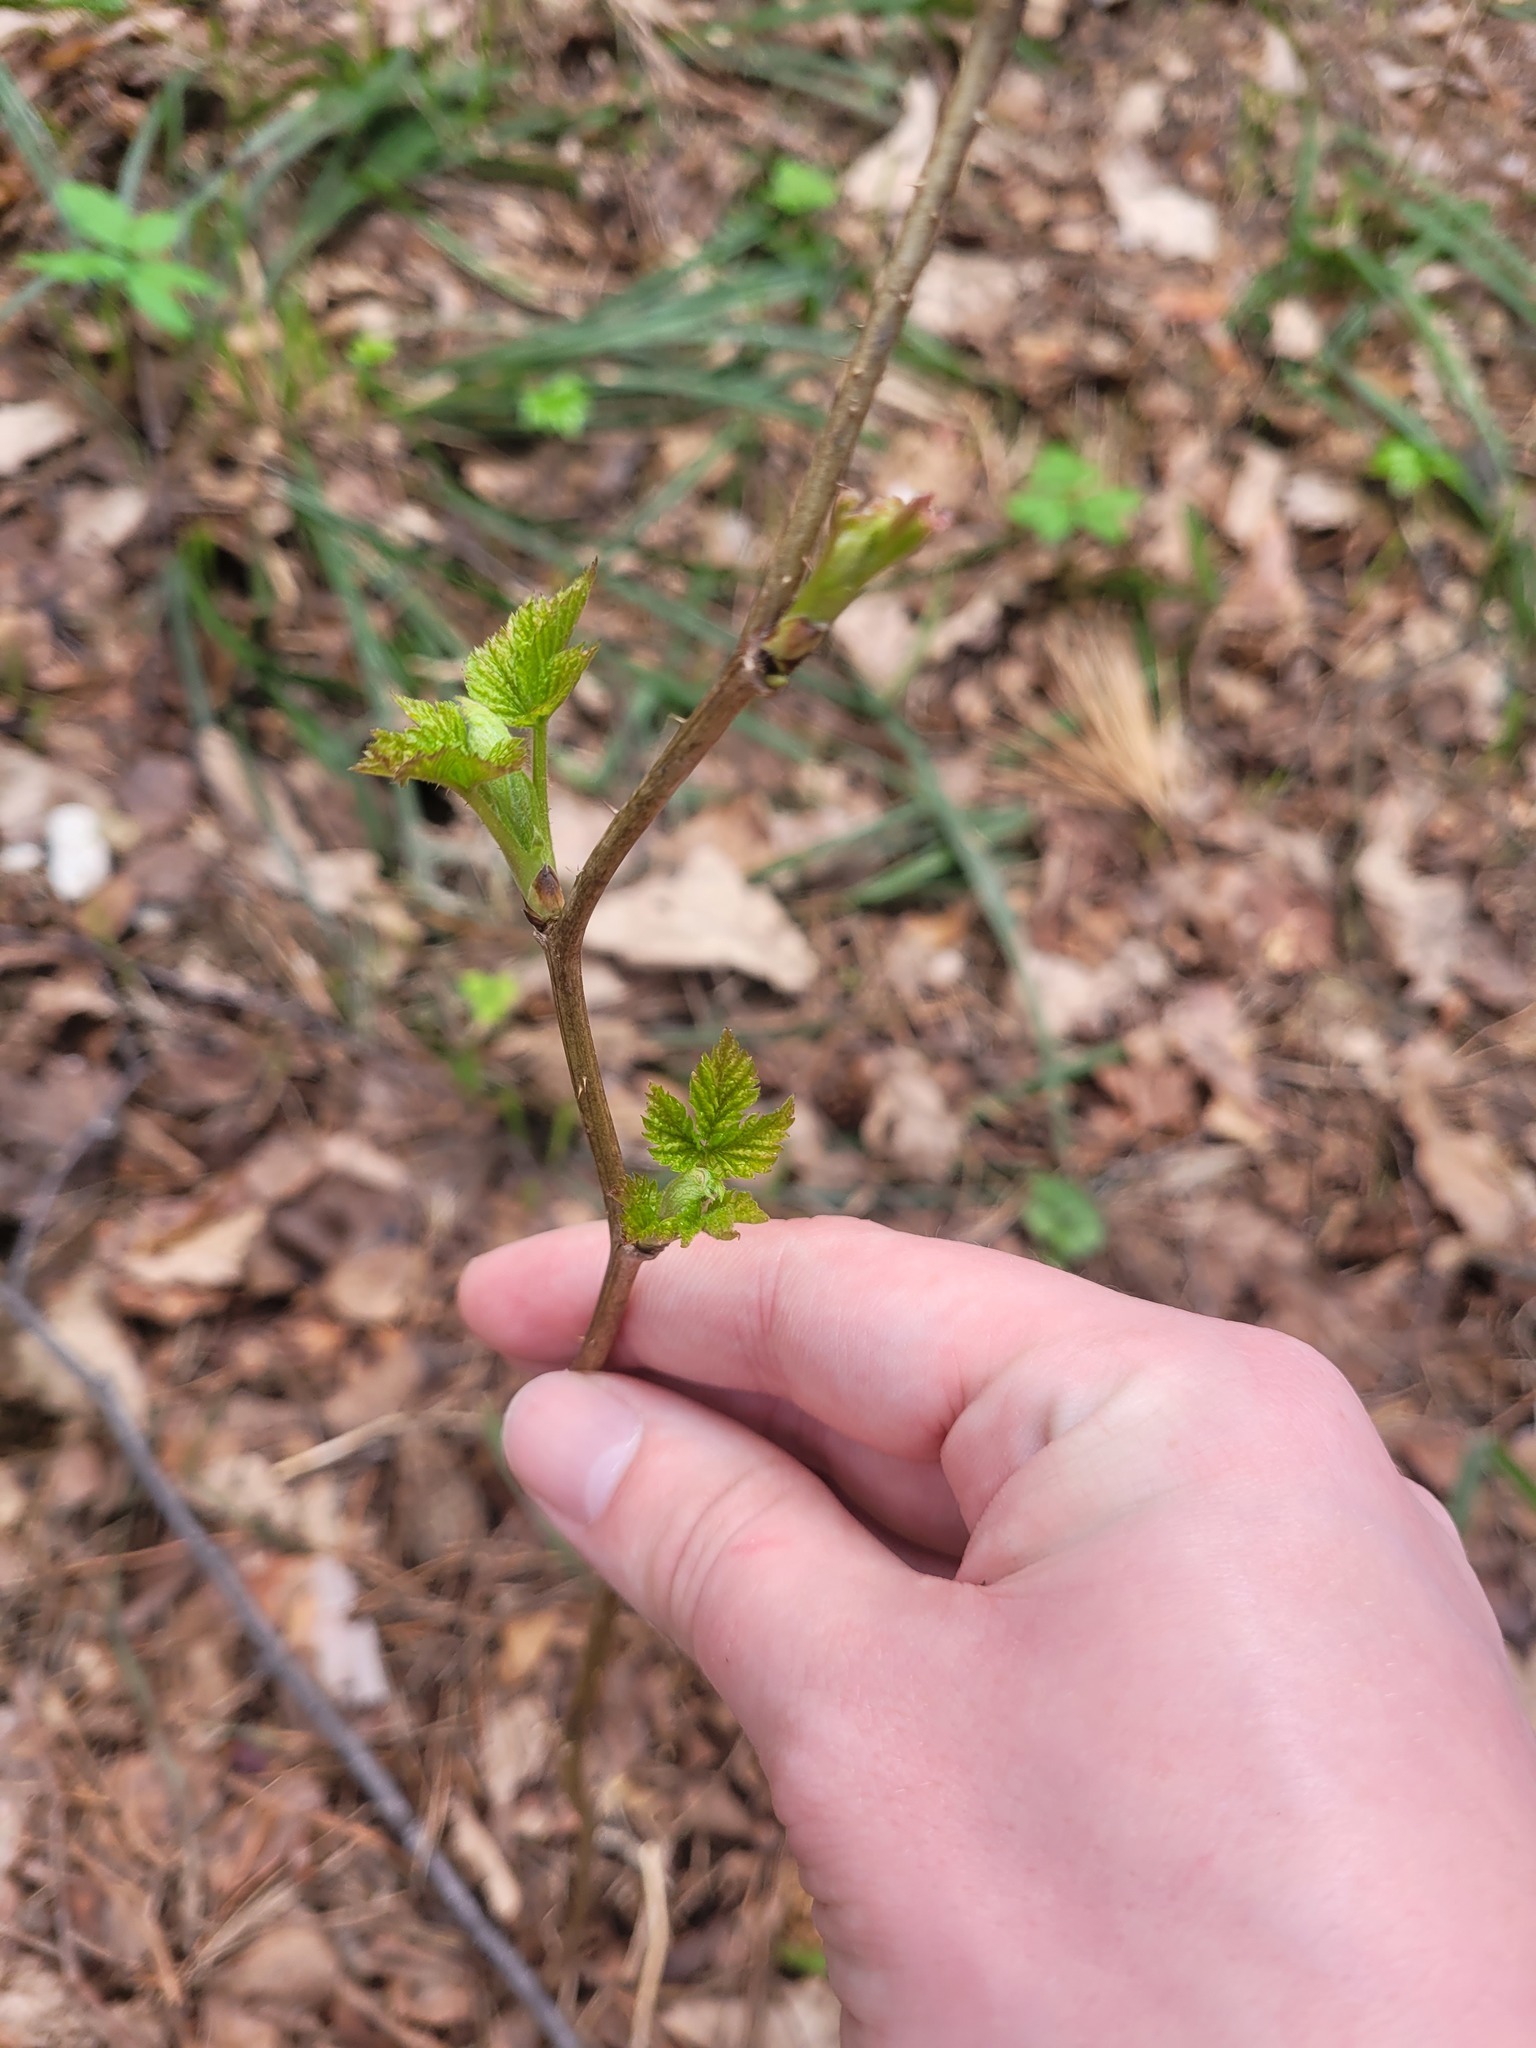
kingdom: Plantae
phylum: Tracheophyta
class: Magnoliopsida
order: Rosales
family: Rosaceae
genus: Rubus
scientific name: Rubus idaeus
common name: Raspberry
